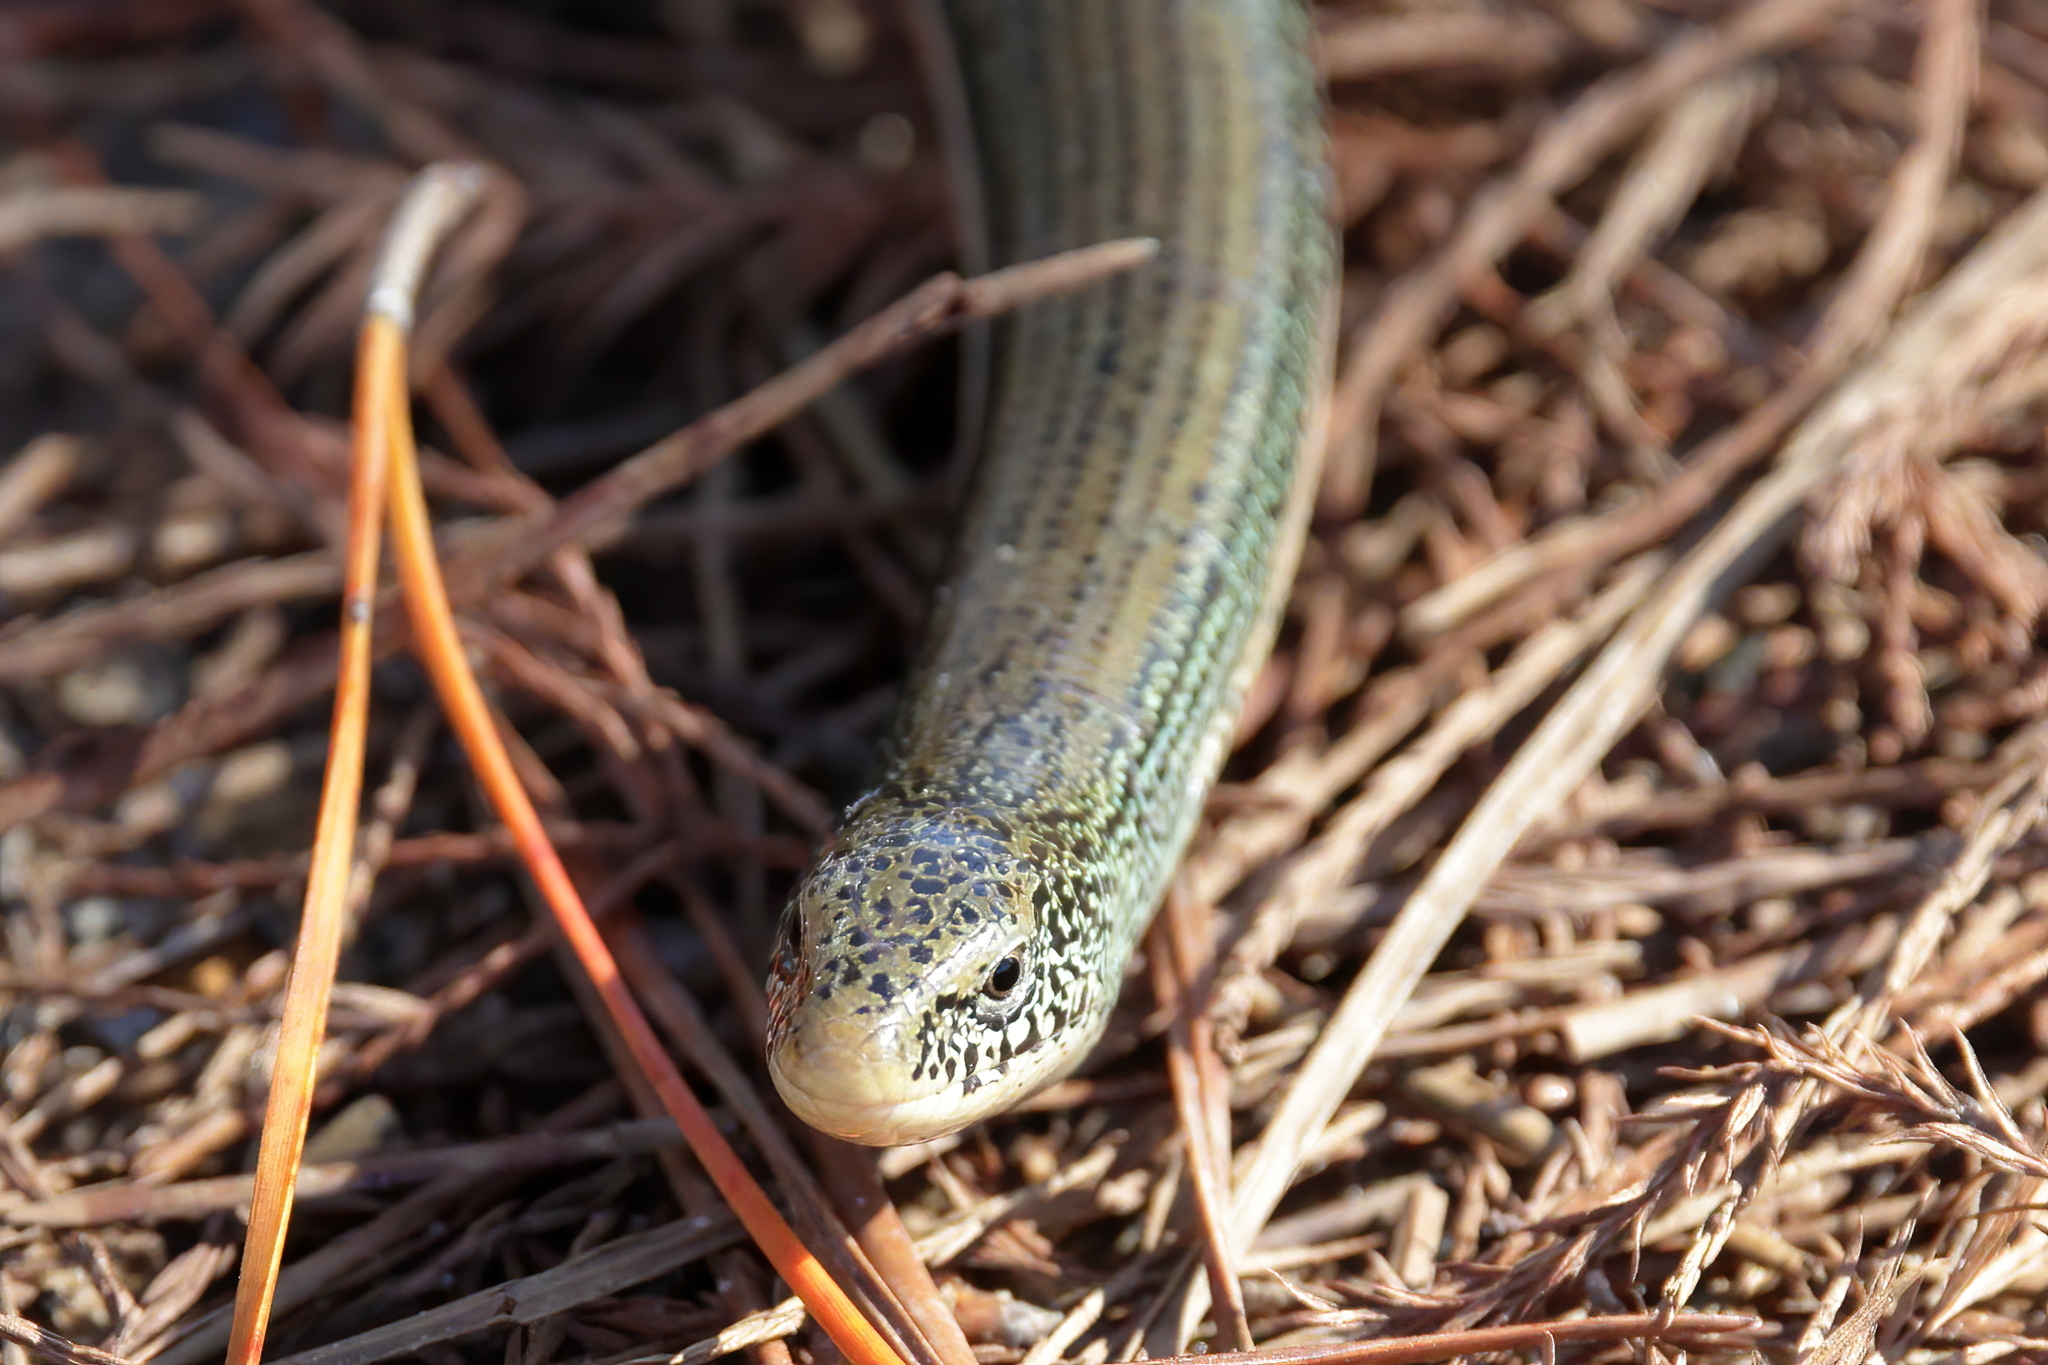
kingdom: Animalia
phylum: Chordata
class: Squamata
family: Anguidae
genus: Ophisaurus
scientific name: Ophisaurus ventralis
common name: Eastern glass lizard
